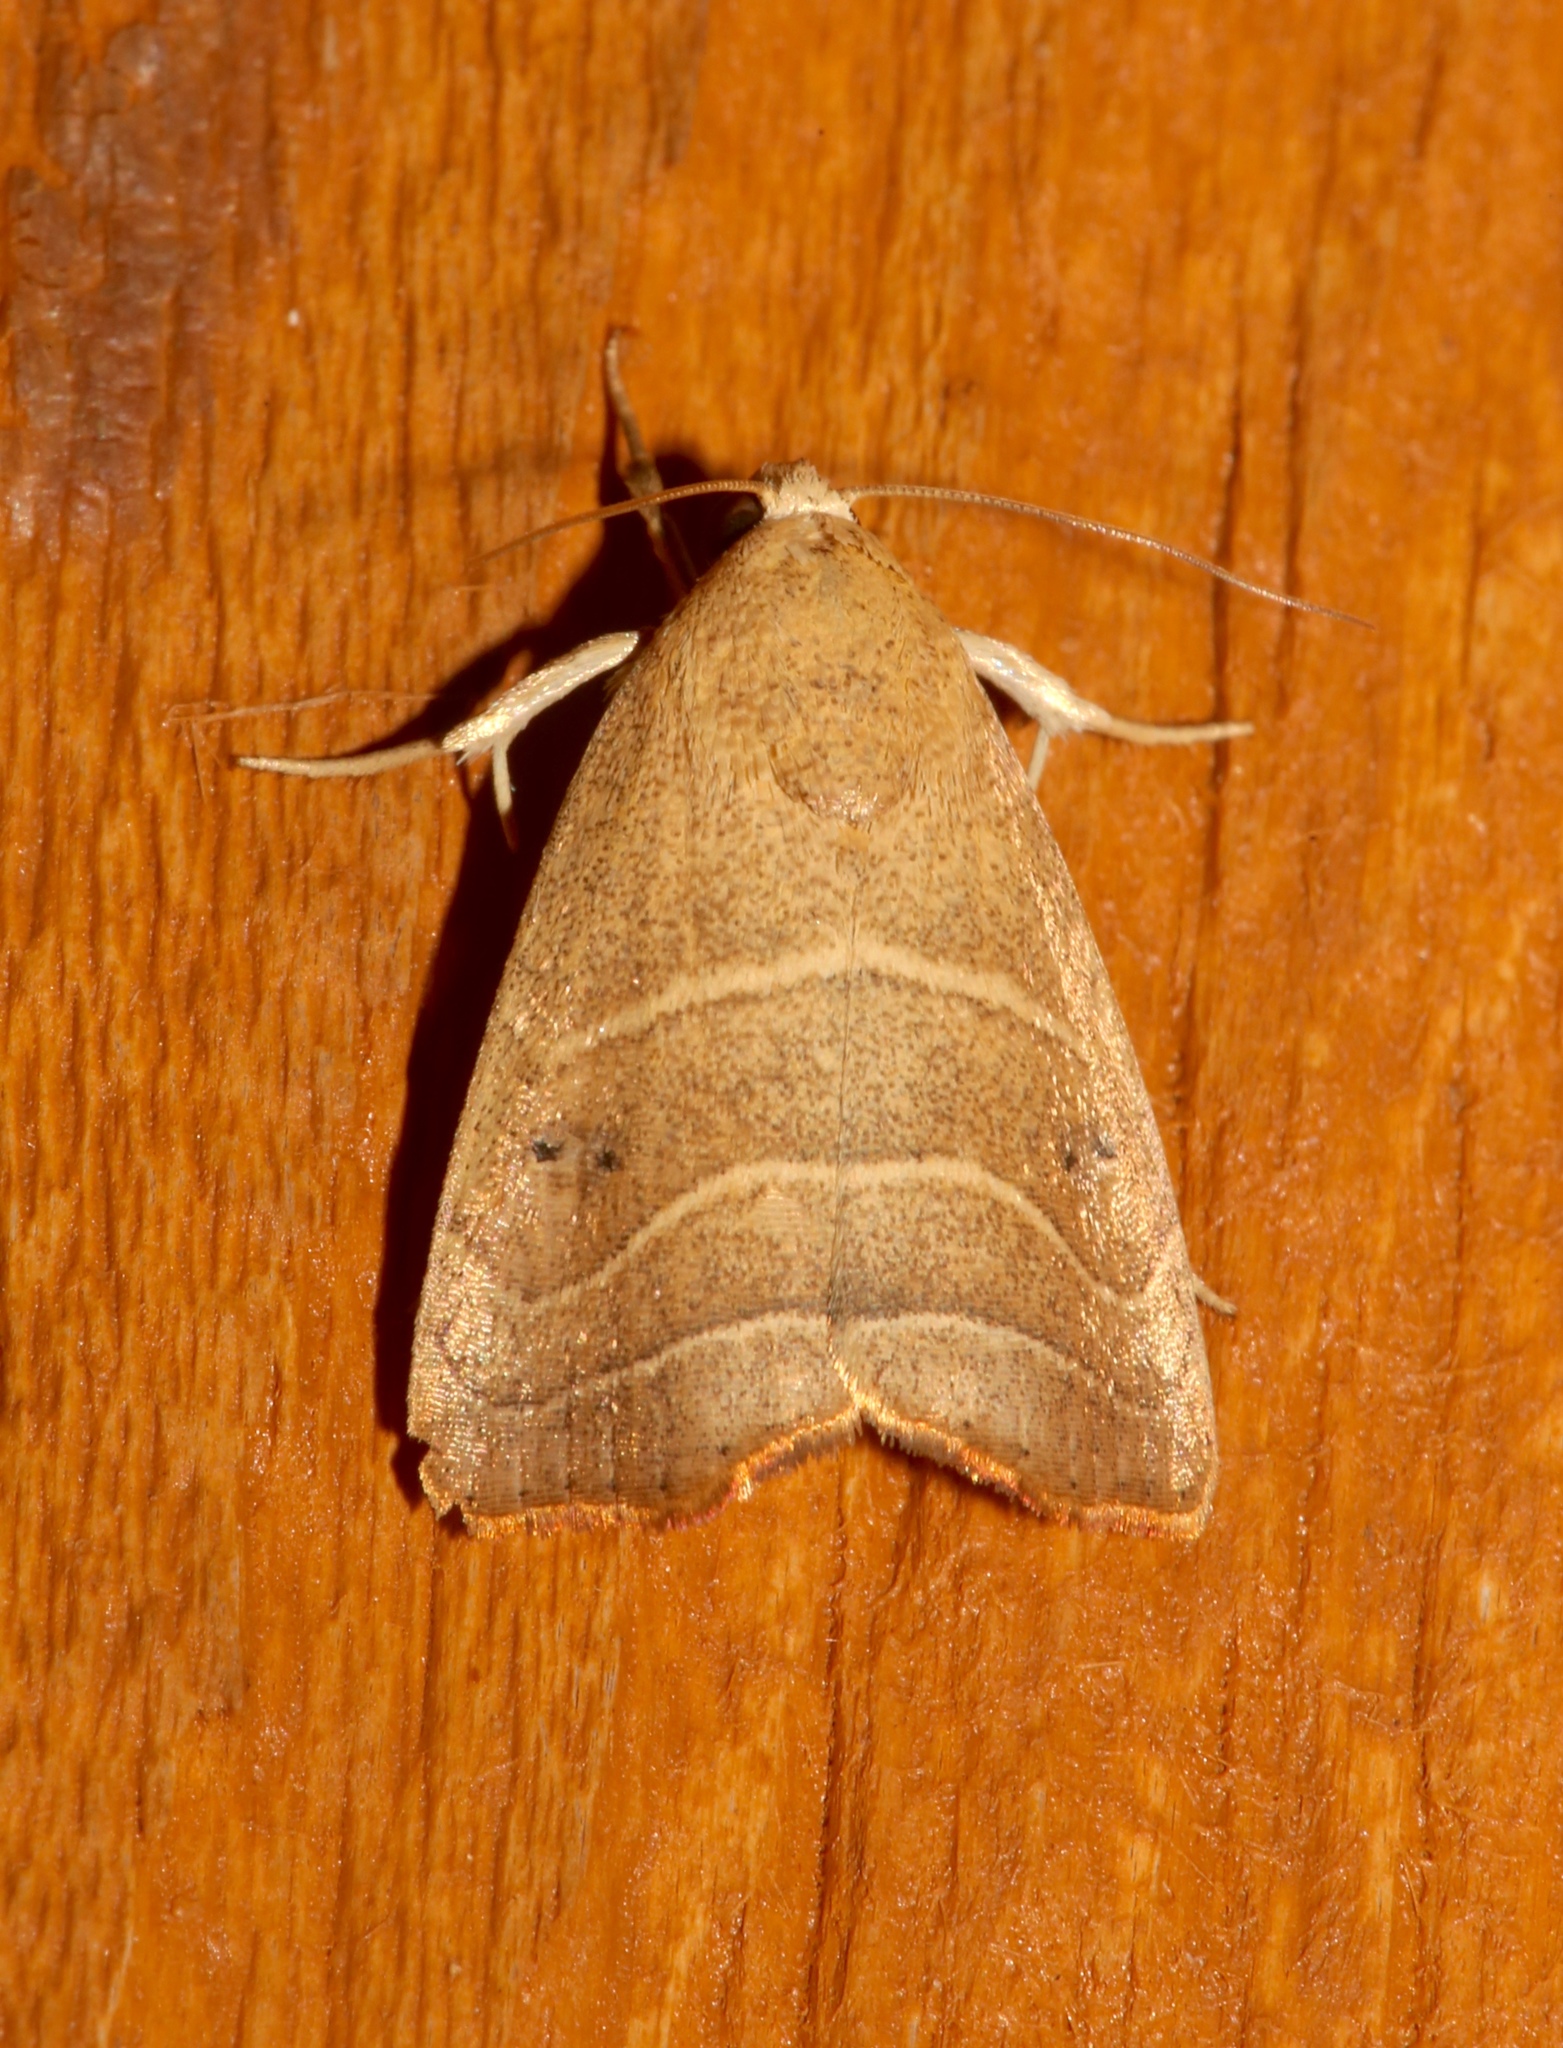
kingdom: Animalia
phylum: Arthropoda
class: Insecta
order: Lepidoptera
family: Noctuidae
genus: Bagisara
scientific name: Bagisara repanda
